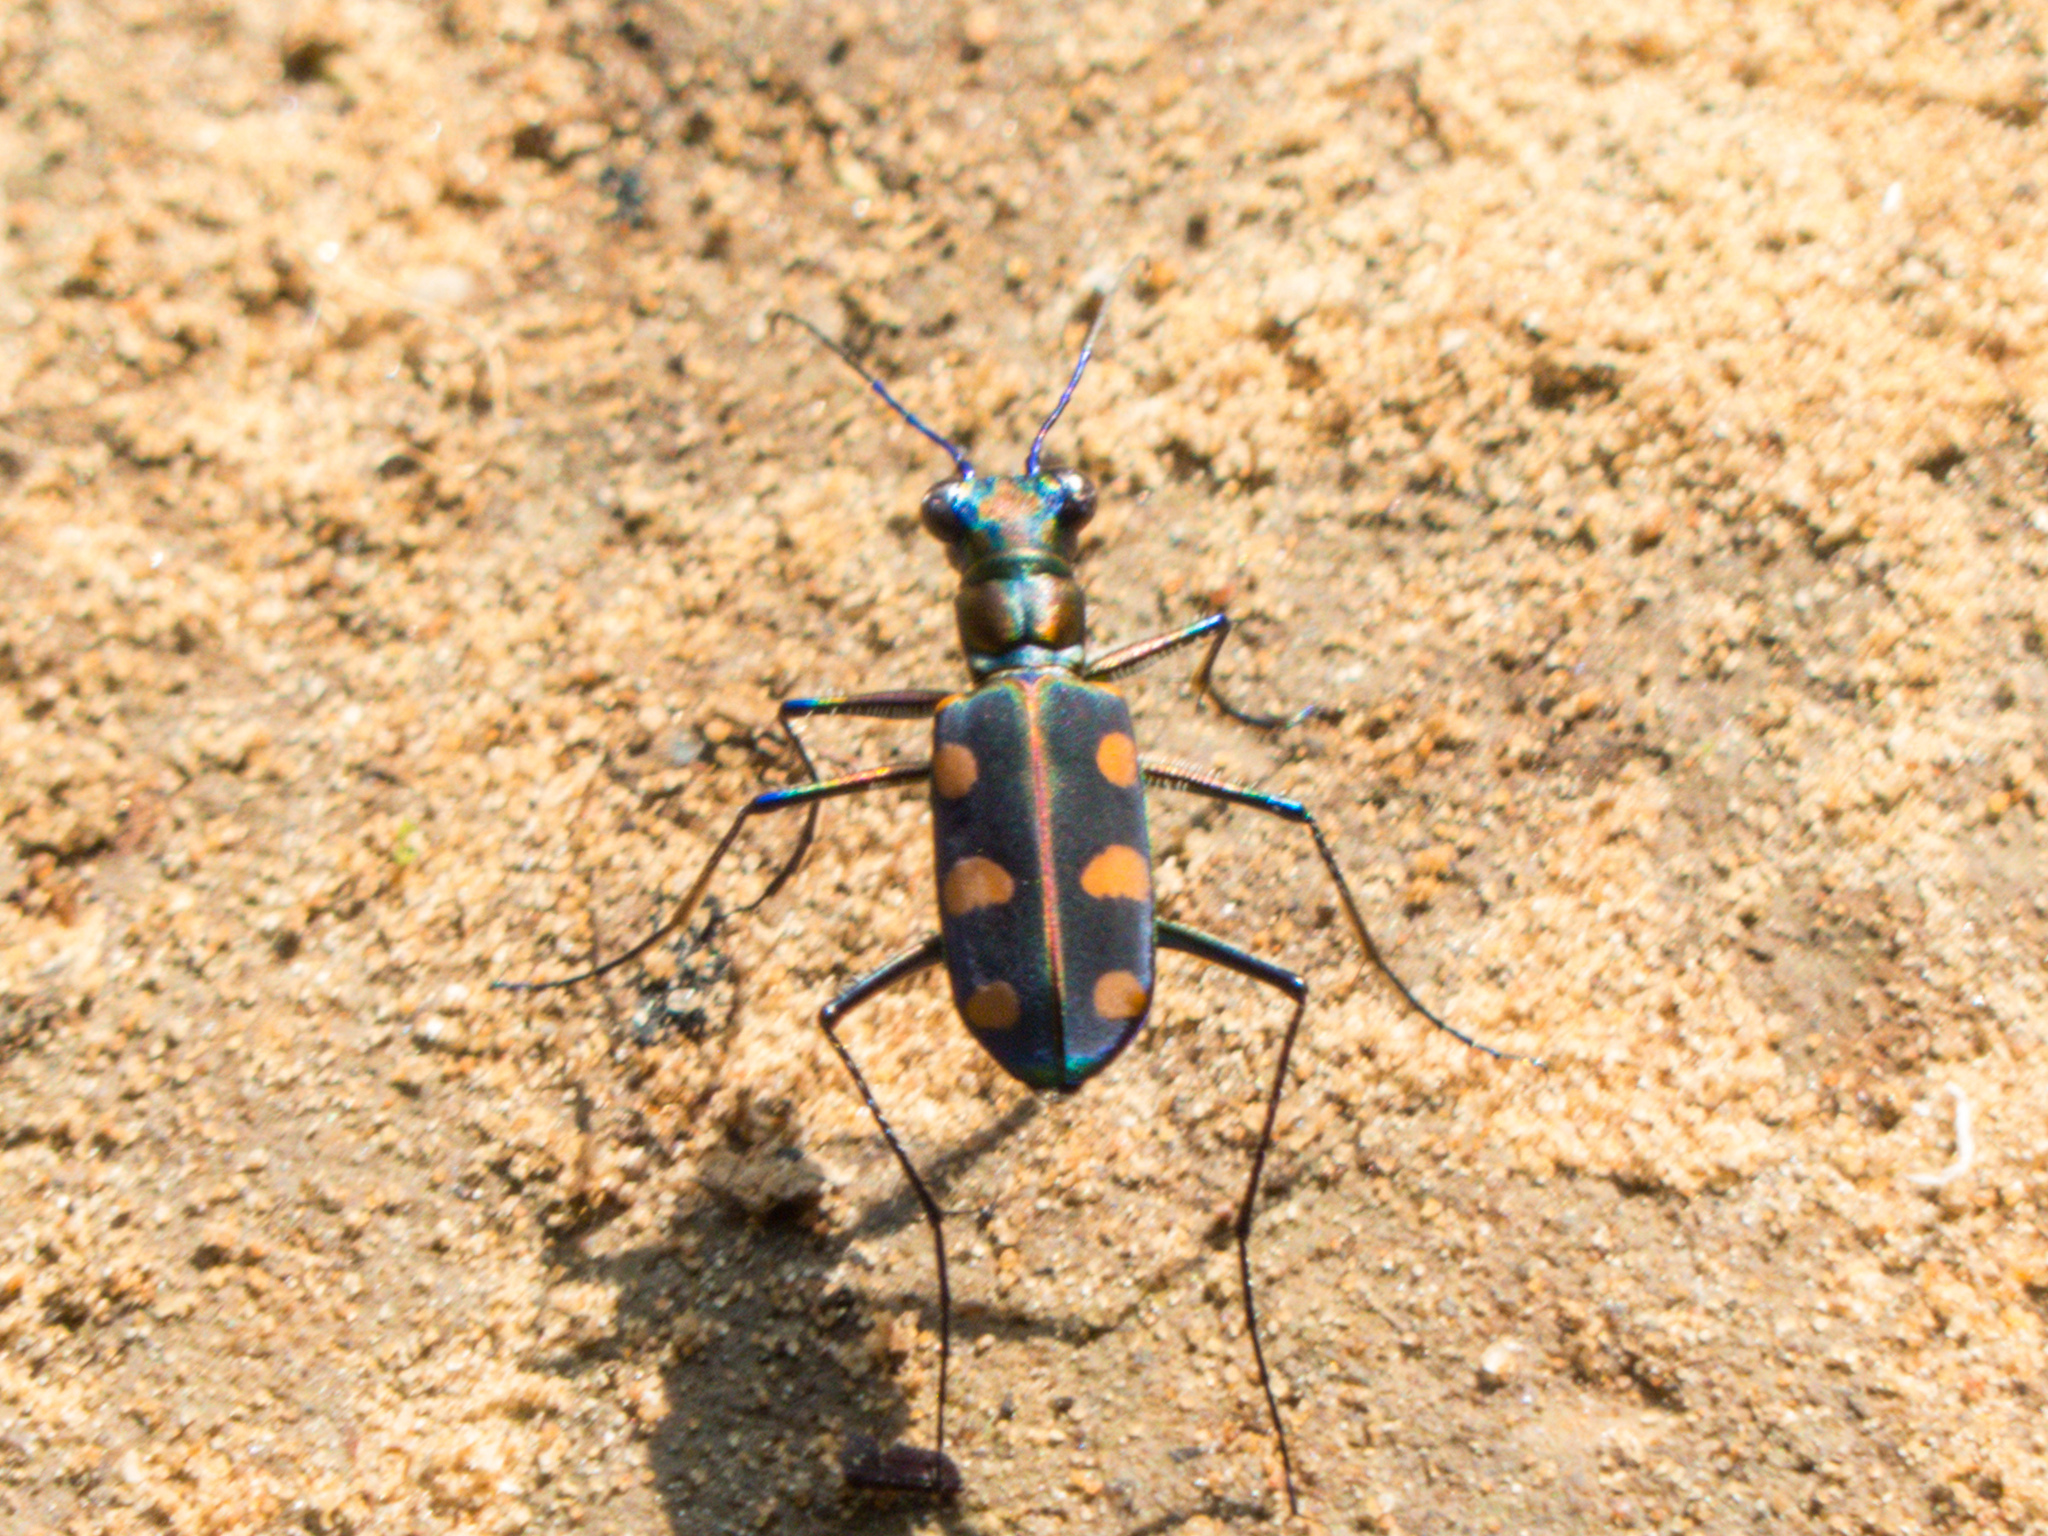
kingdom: Animalia
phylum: Arthropoda
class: Insecta
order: Coleoptera
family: Carabidae
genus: Cicindela
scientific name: Cicindela juxtata
